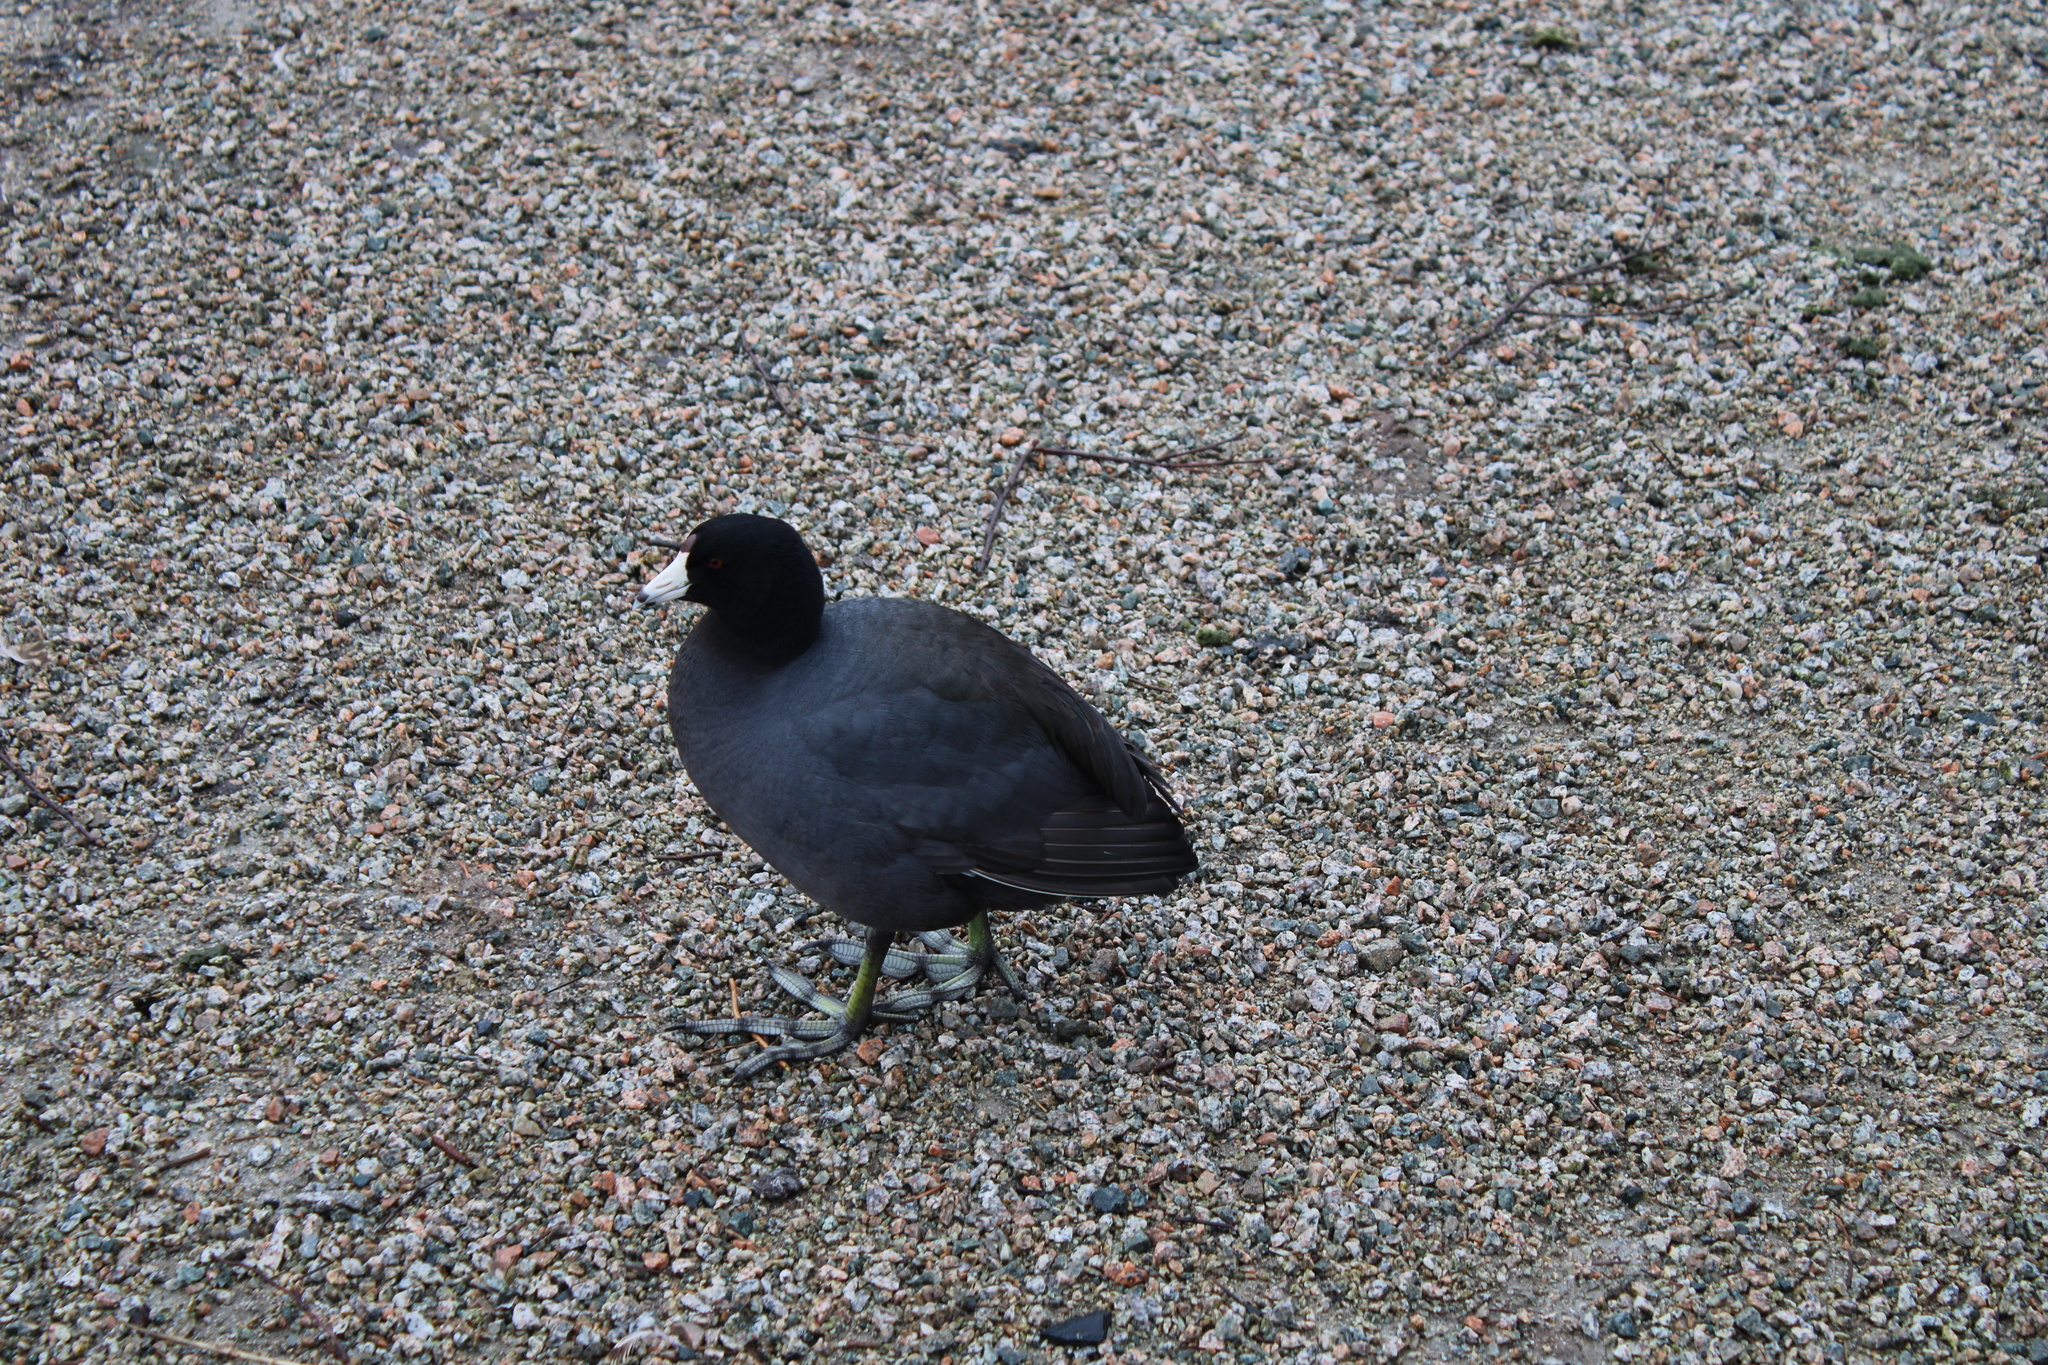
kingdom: Animalia
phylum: Chordata
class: Aves
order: Gruiformes
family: Rallidae
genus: Fulica
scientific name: Fulica americana
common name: American coot
